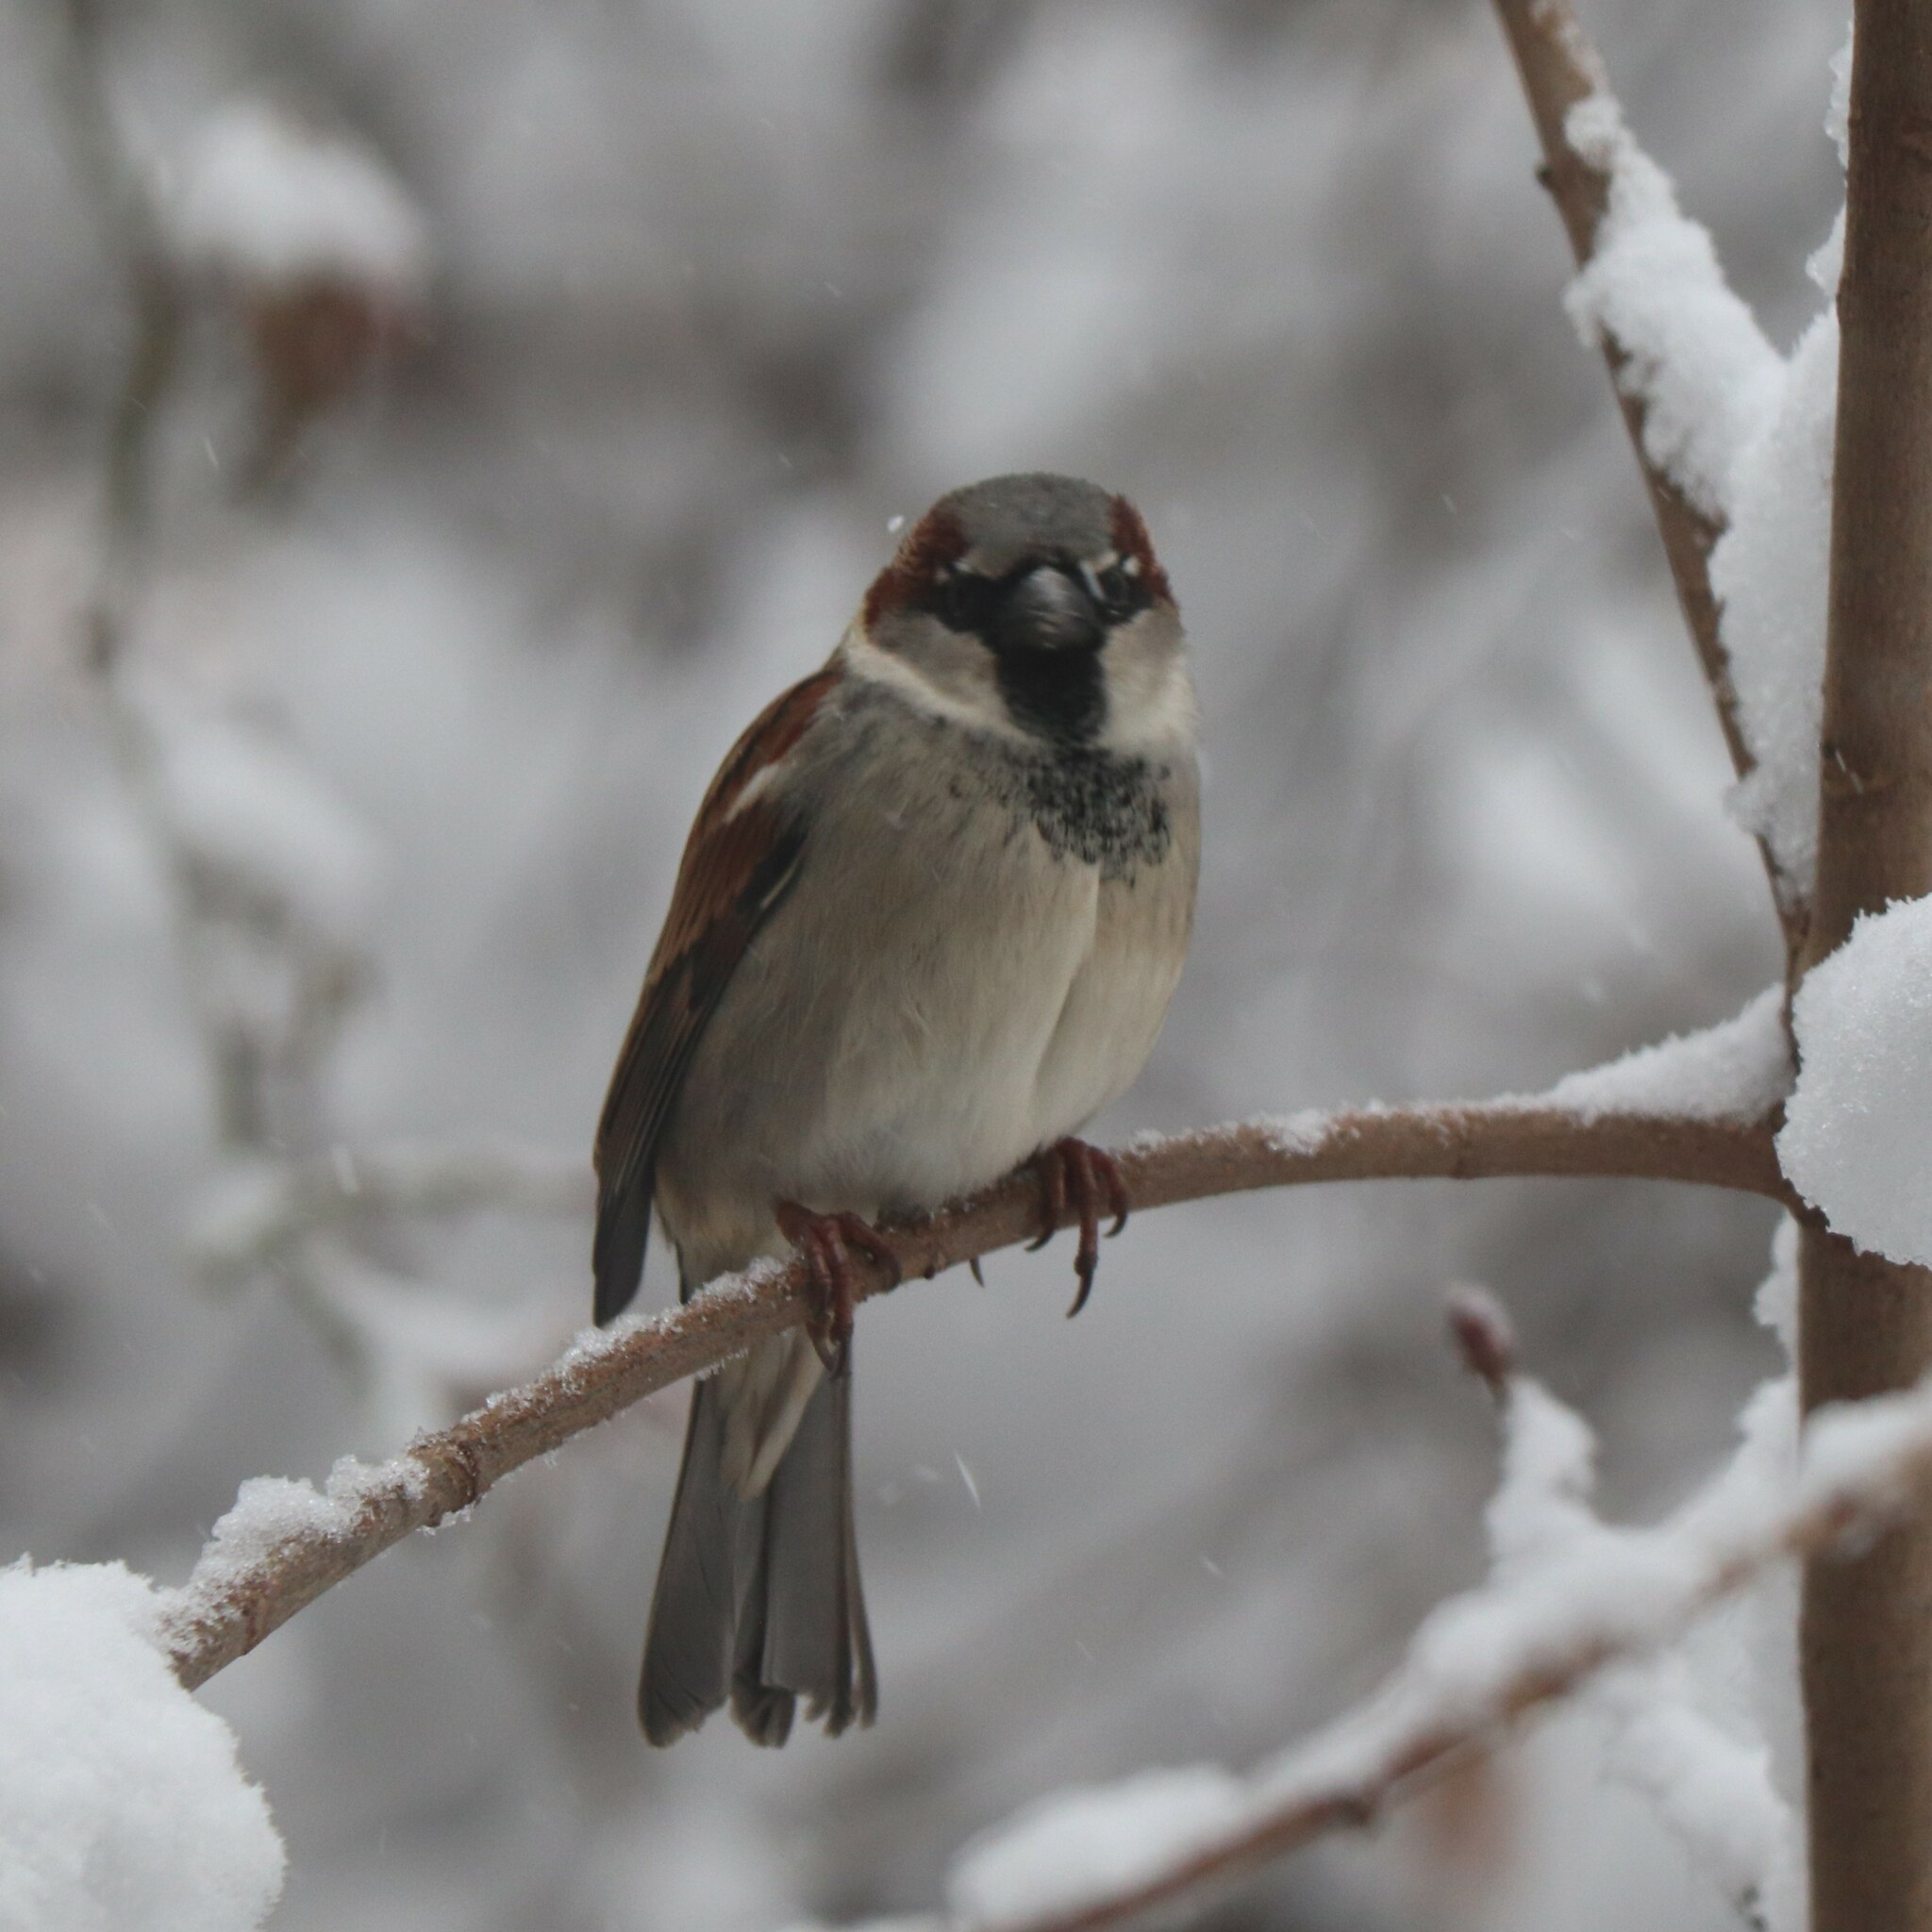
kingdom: Animalia
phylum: Chordata
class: Aves
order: Passeriformes
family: Passeridae
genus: Passer
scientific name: Passer domesticus
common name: House sparrow
